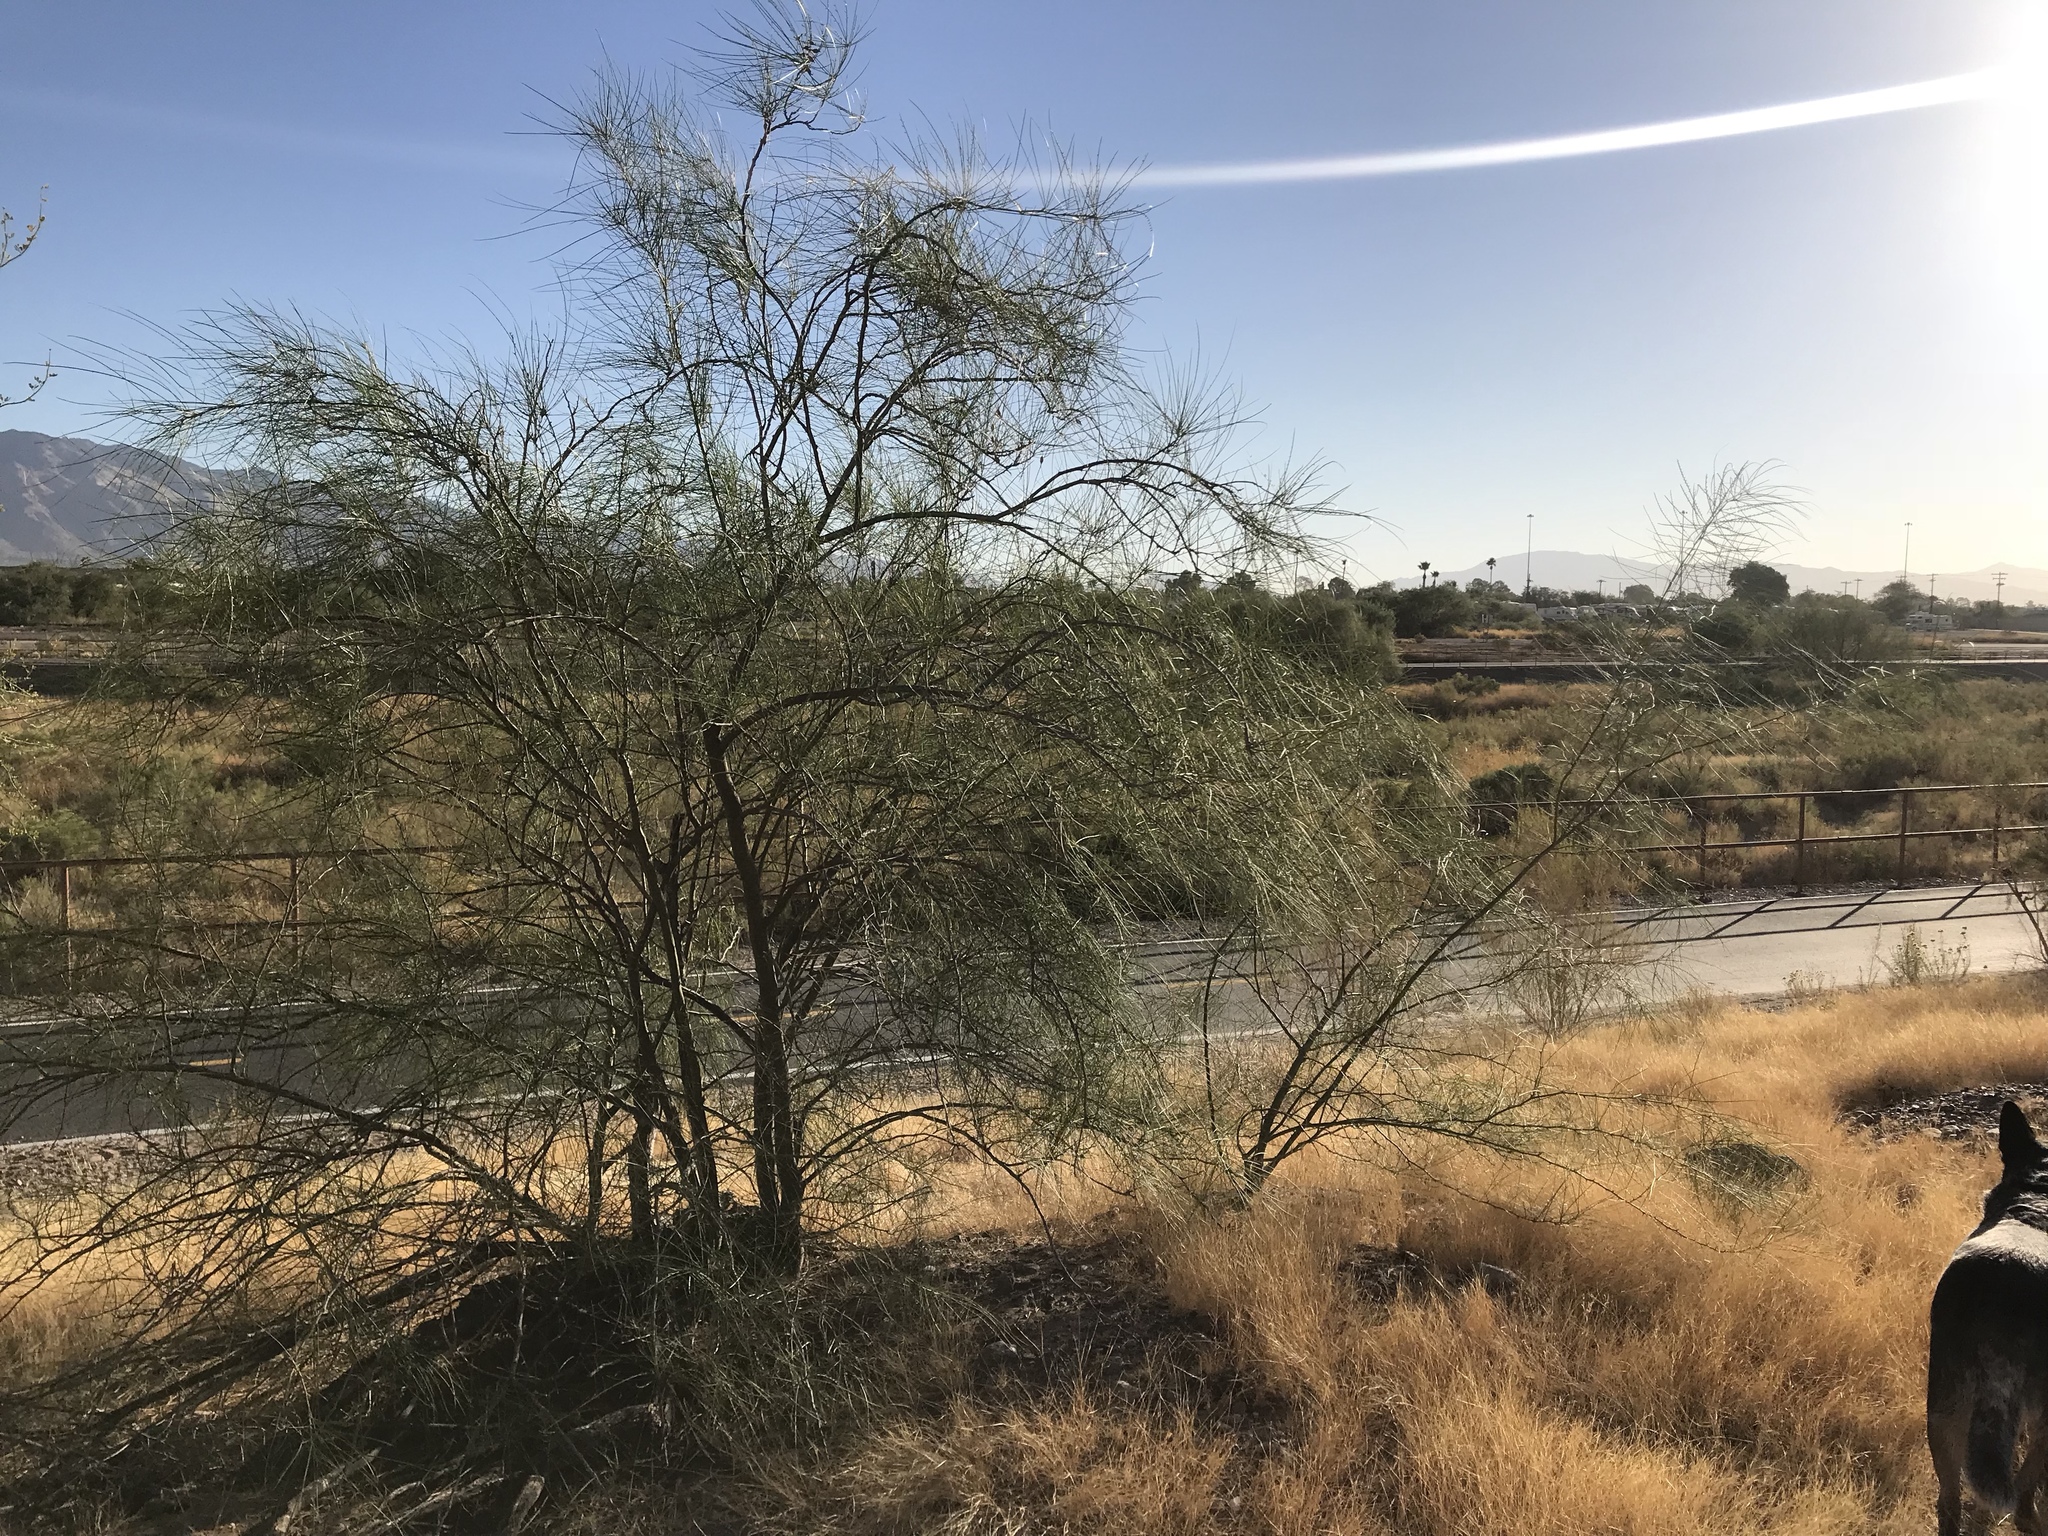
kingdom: Plantae
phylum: Tracheophyta
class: Magnoliopsida
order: Fabales
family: Fabaceae
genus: Parkinsonia
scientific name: Parkinsonia aculeata
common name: Jerusalem thorn
